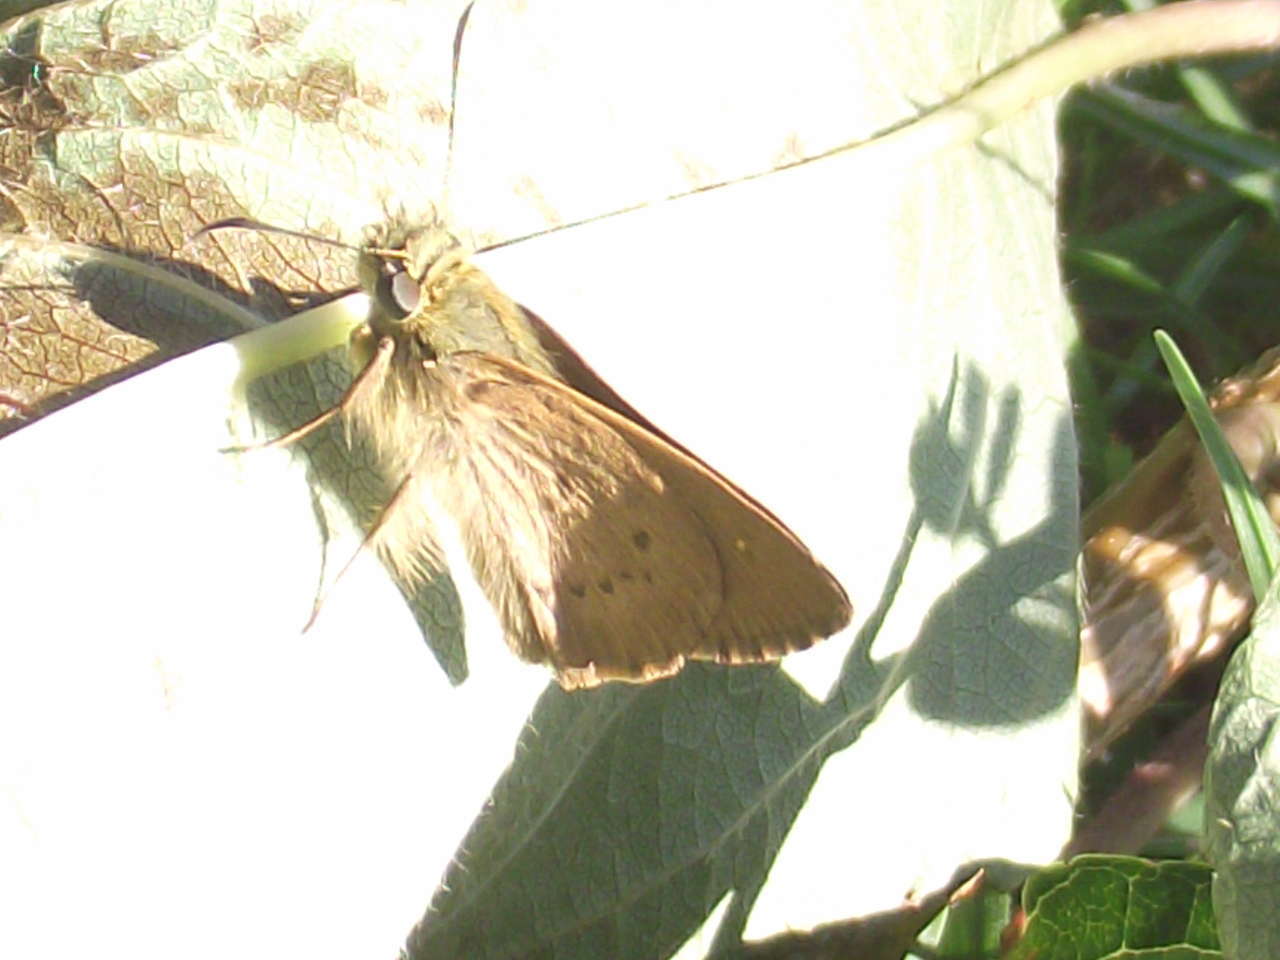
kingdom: Animalia
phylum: Arthropoda
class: Insecta
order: Lepidoptera
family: Hesperiidae
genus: Toxidia
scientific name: Toxidia
